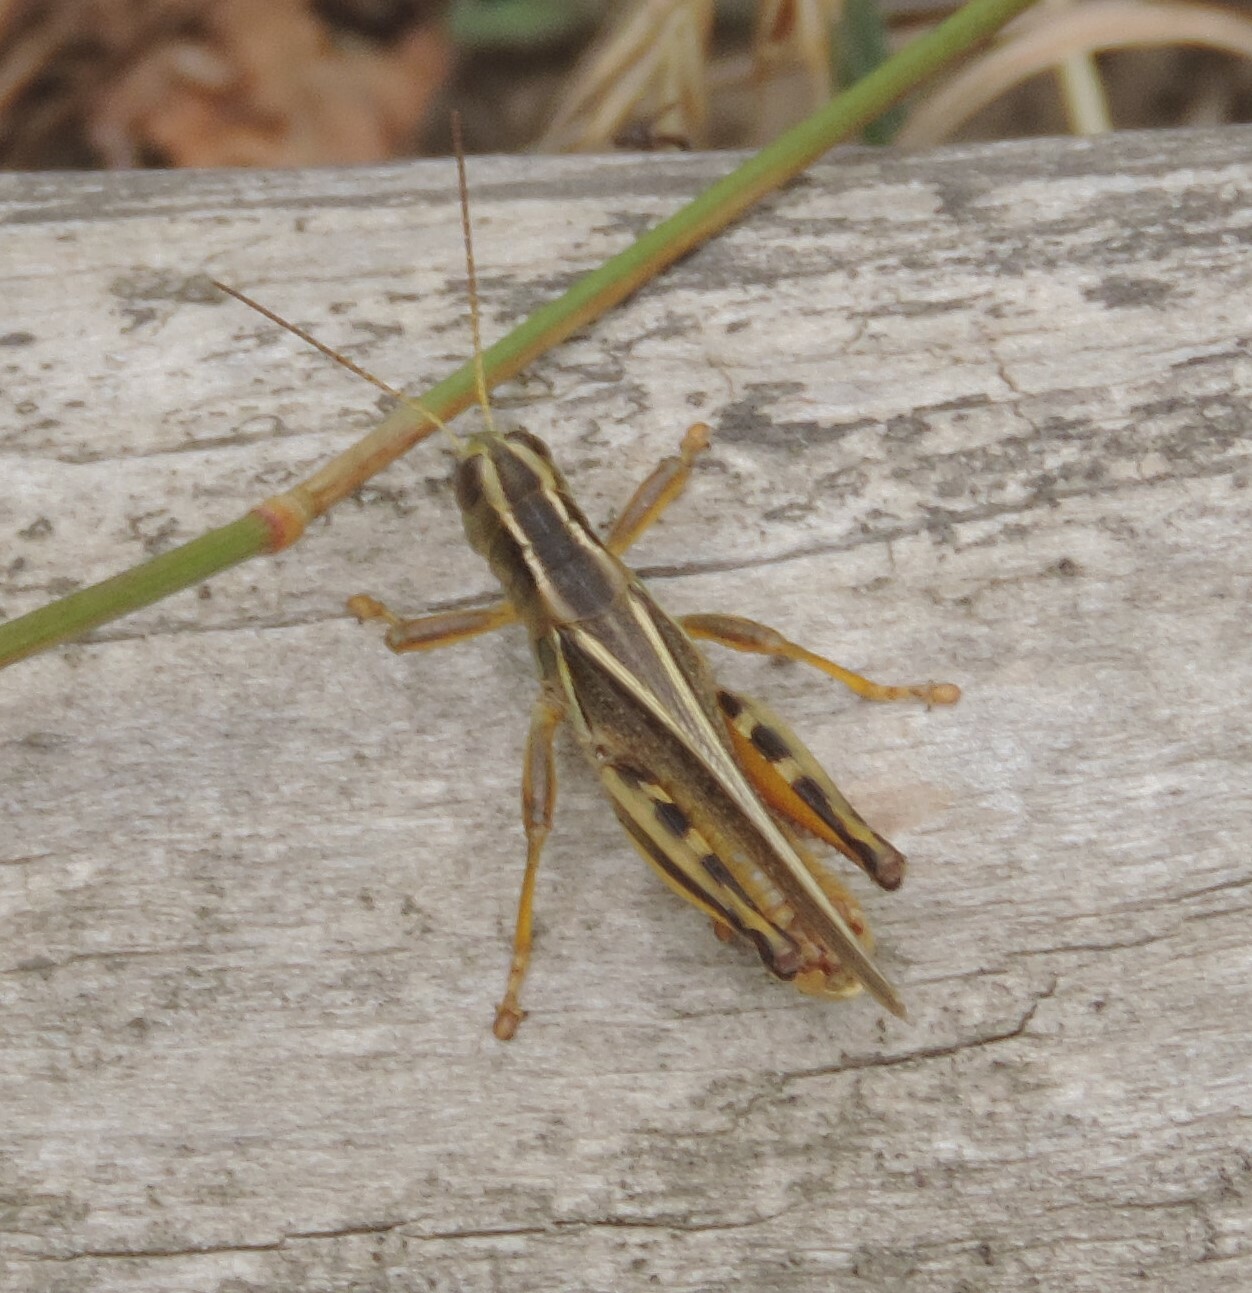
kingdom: Animalia
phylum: Arthropoda
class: Insecta
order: Orthoptera
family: Acrididae
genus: Melanoplus
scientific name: Melanoplus bivittatus
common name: Two-striped grasshopper
